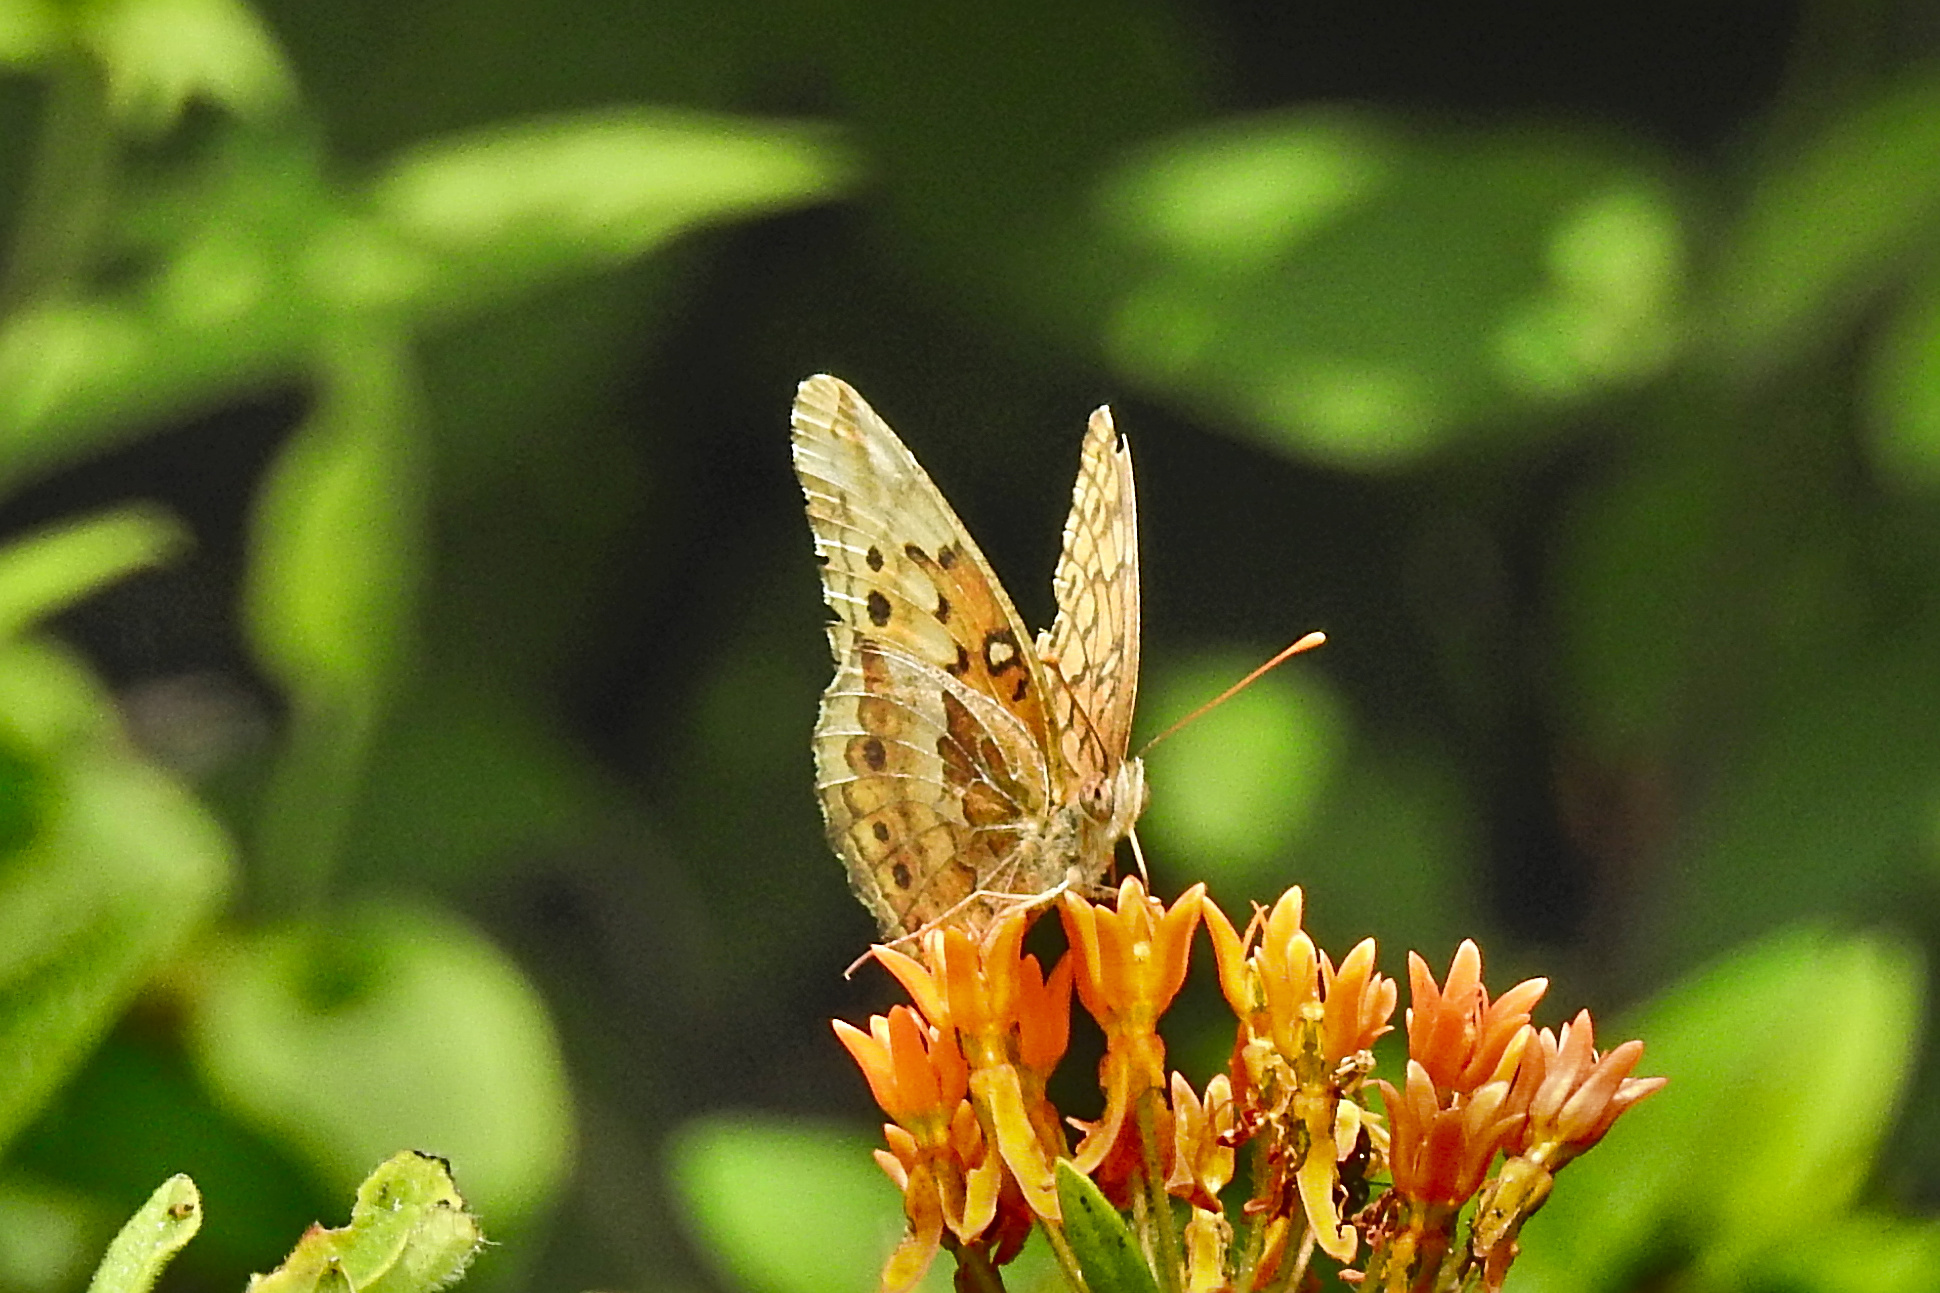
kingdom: Animalia
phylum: Arthropoda
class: Insecta
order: Lepidoptera
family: Nymphalidae
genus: Euptoieta
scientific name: Euptoieta claudia
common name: Variegated fritillary
